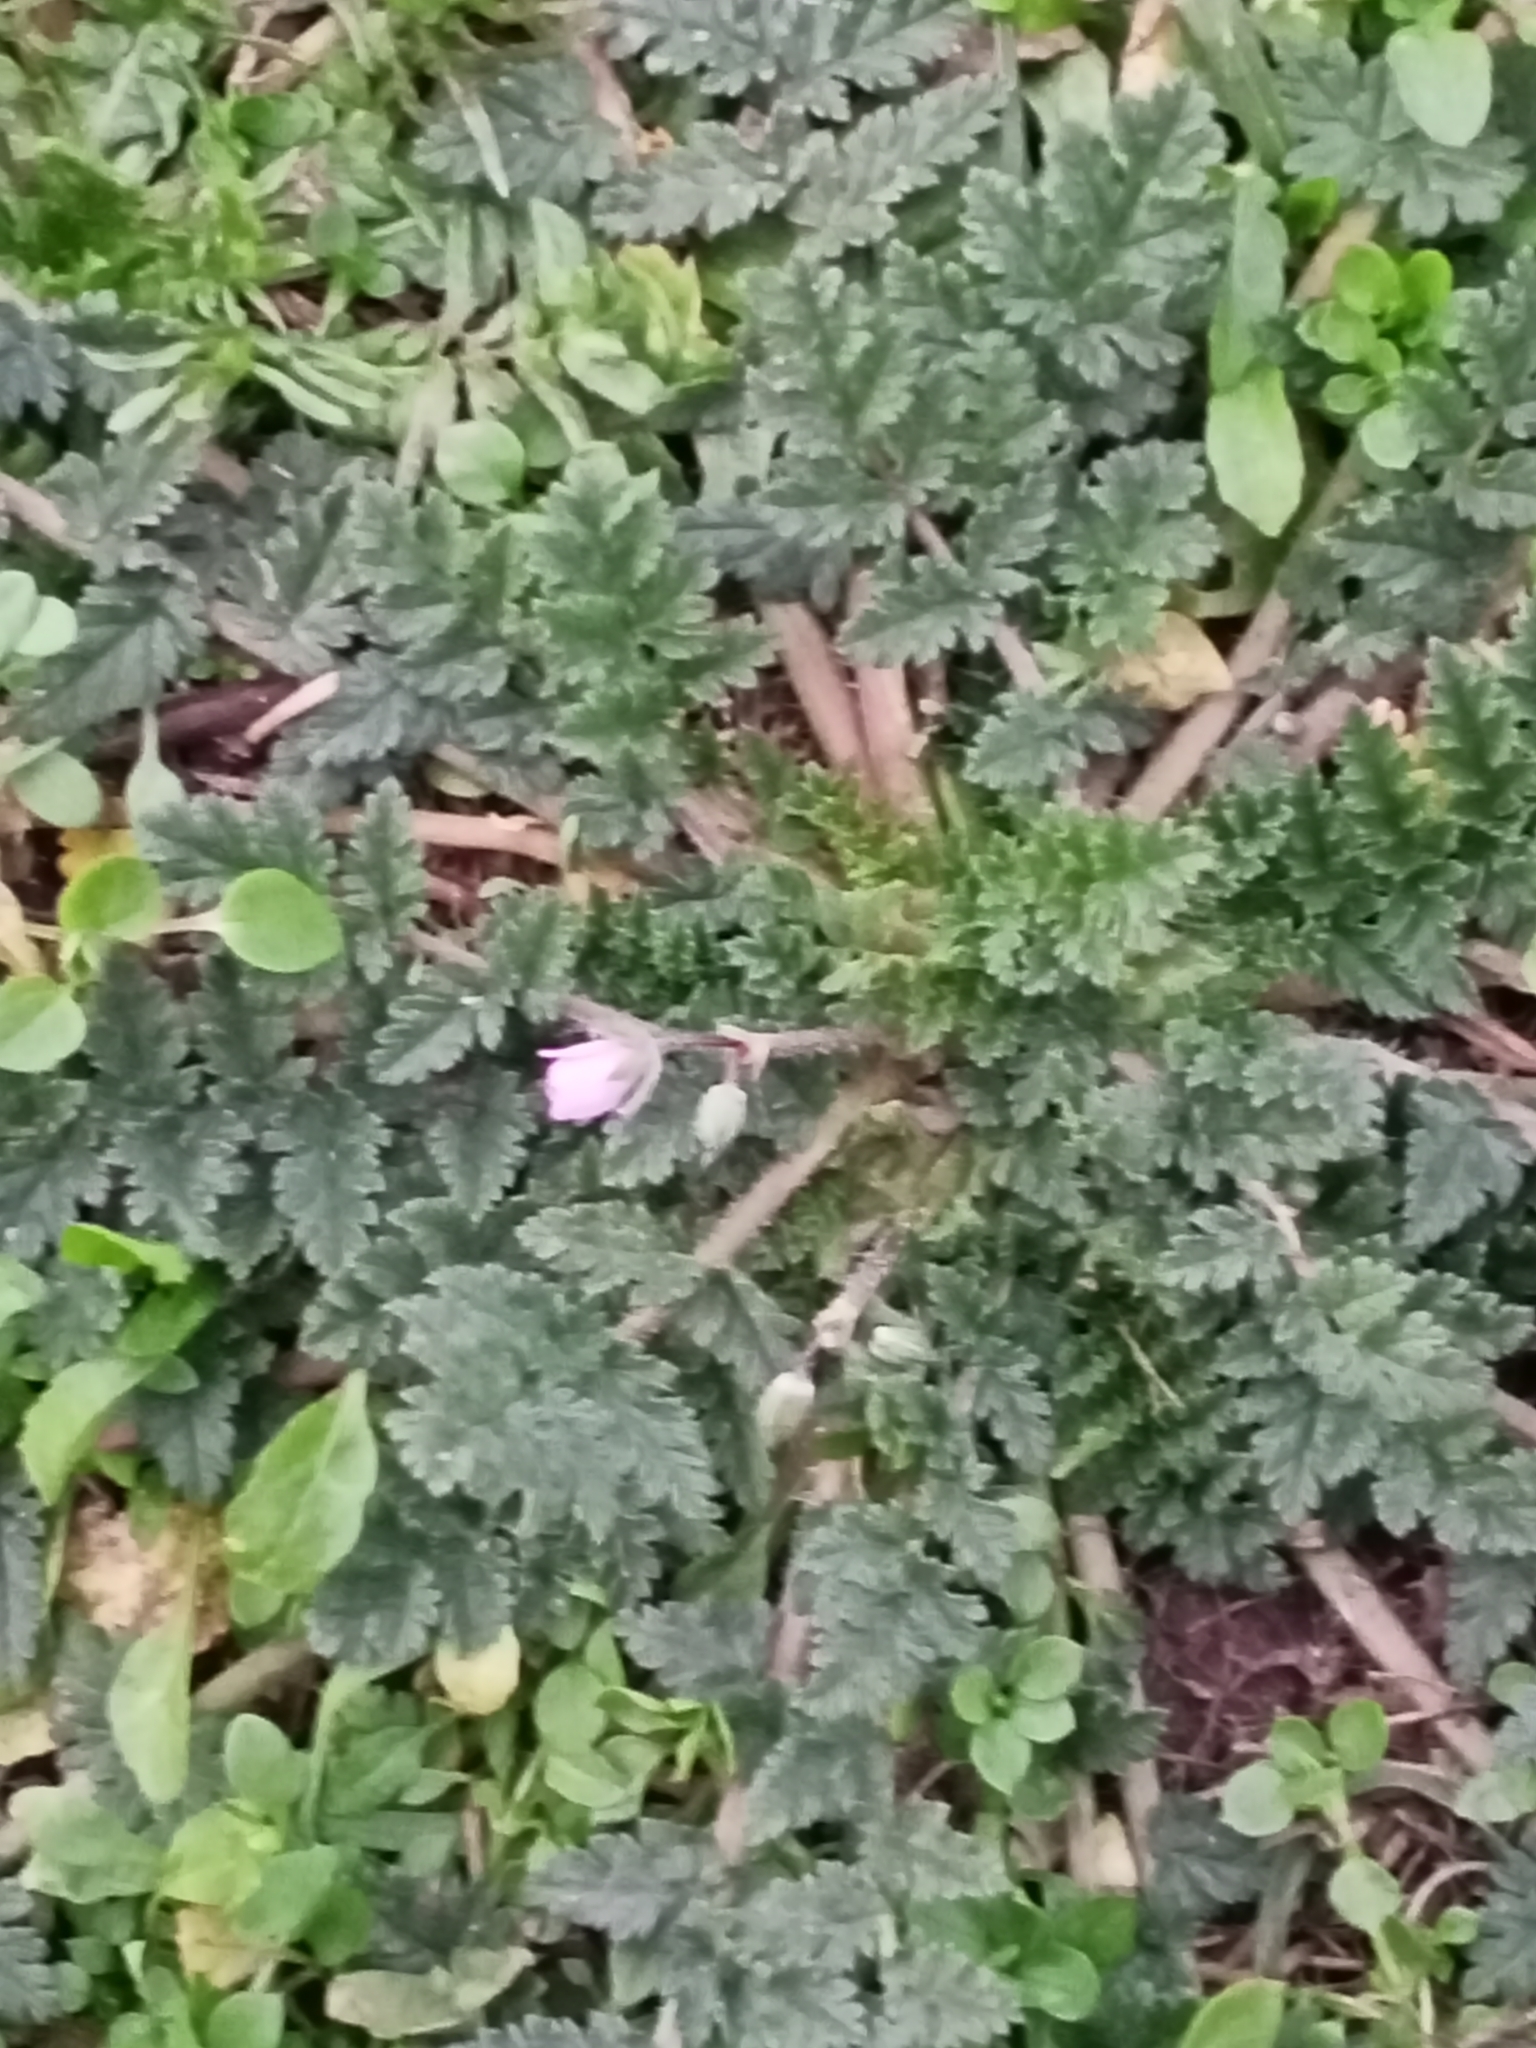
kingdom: Plantae
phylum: Tracheophyta
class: Magnoliopsida
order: Geraniales
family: Geraniaceae
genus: Erodium
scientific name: Erodium cicutarium
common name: Common stork's-bill
